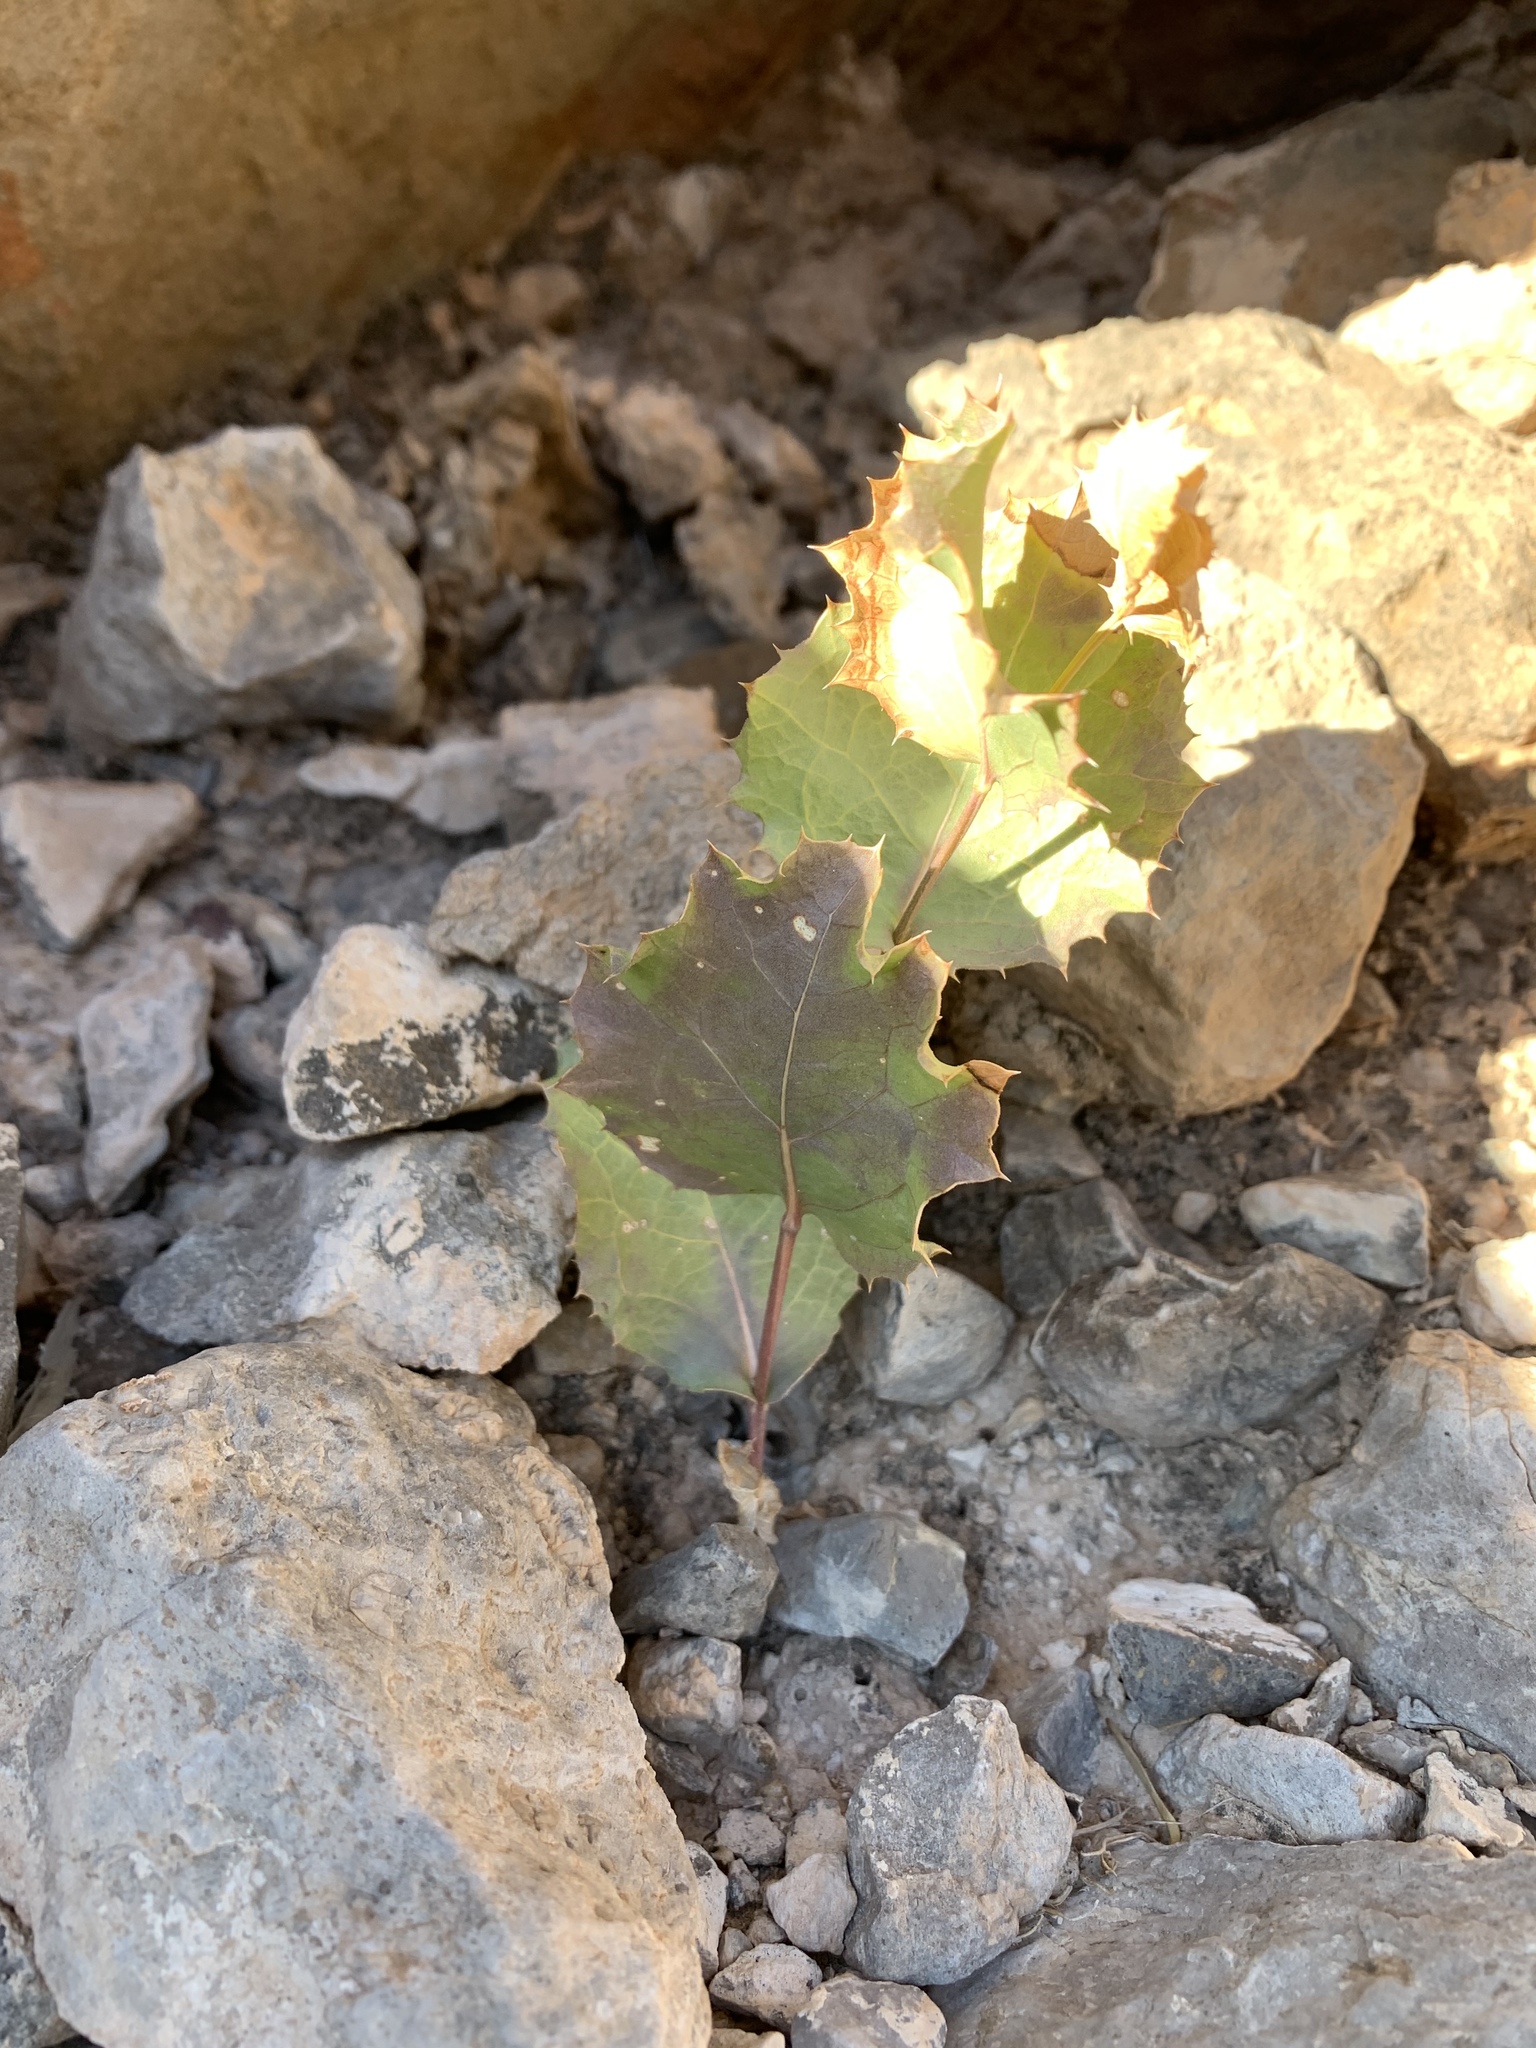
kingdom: Plantae
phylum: Tracheophyta
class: Magnoliopsida
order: Asterales
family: Asteraceae
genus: Acourtia
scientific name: Acourtia nana
